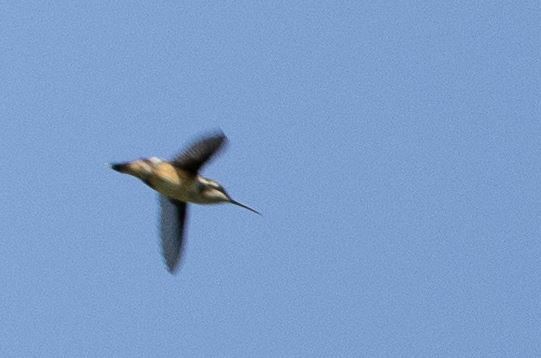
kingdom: Animalia
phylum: Chordata
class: Aves
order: Apodiformes
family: Trochilidae
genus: Chaetocercus
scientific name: Chaetocercus mulsant
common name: White-bellied woodstar
